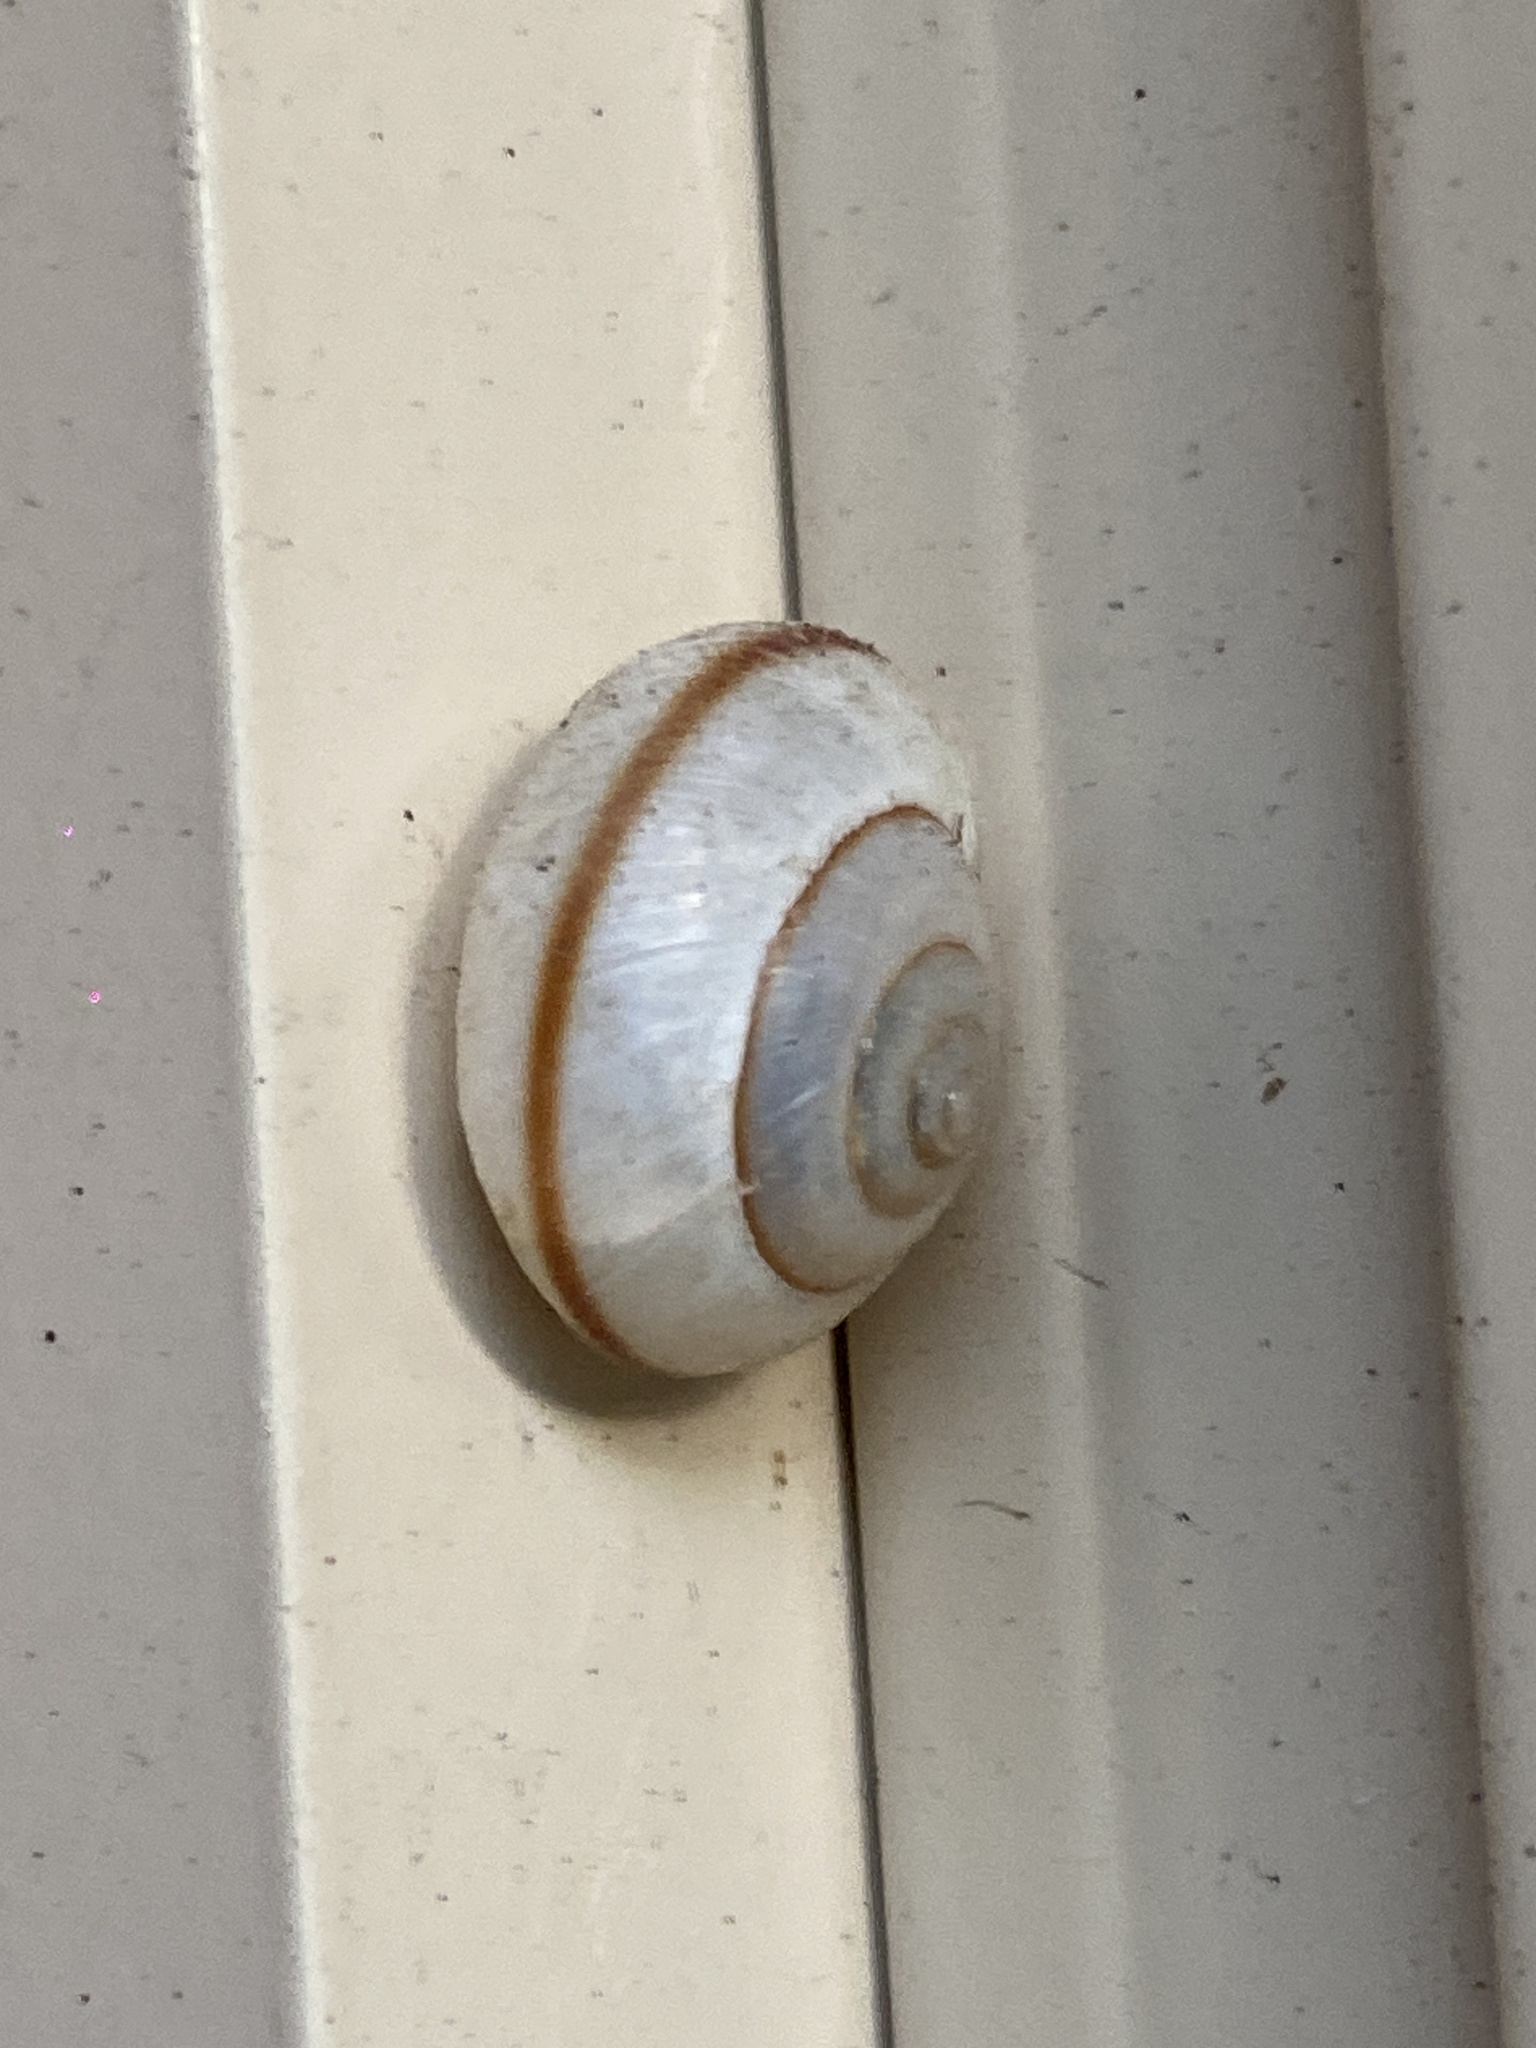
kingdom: Animalia
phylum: Mollusca
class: Gastropoda
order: Stylommatophora
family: Camaenidae
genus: Bradybaena
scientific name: Bradybaena similaris
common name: Asian trampsnail
